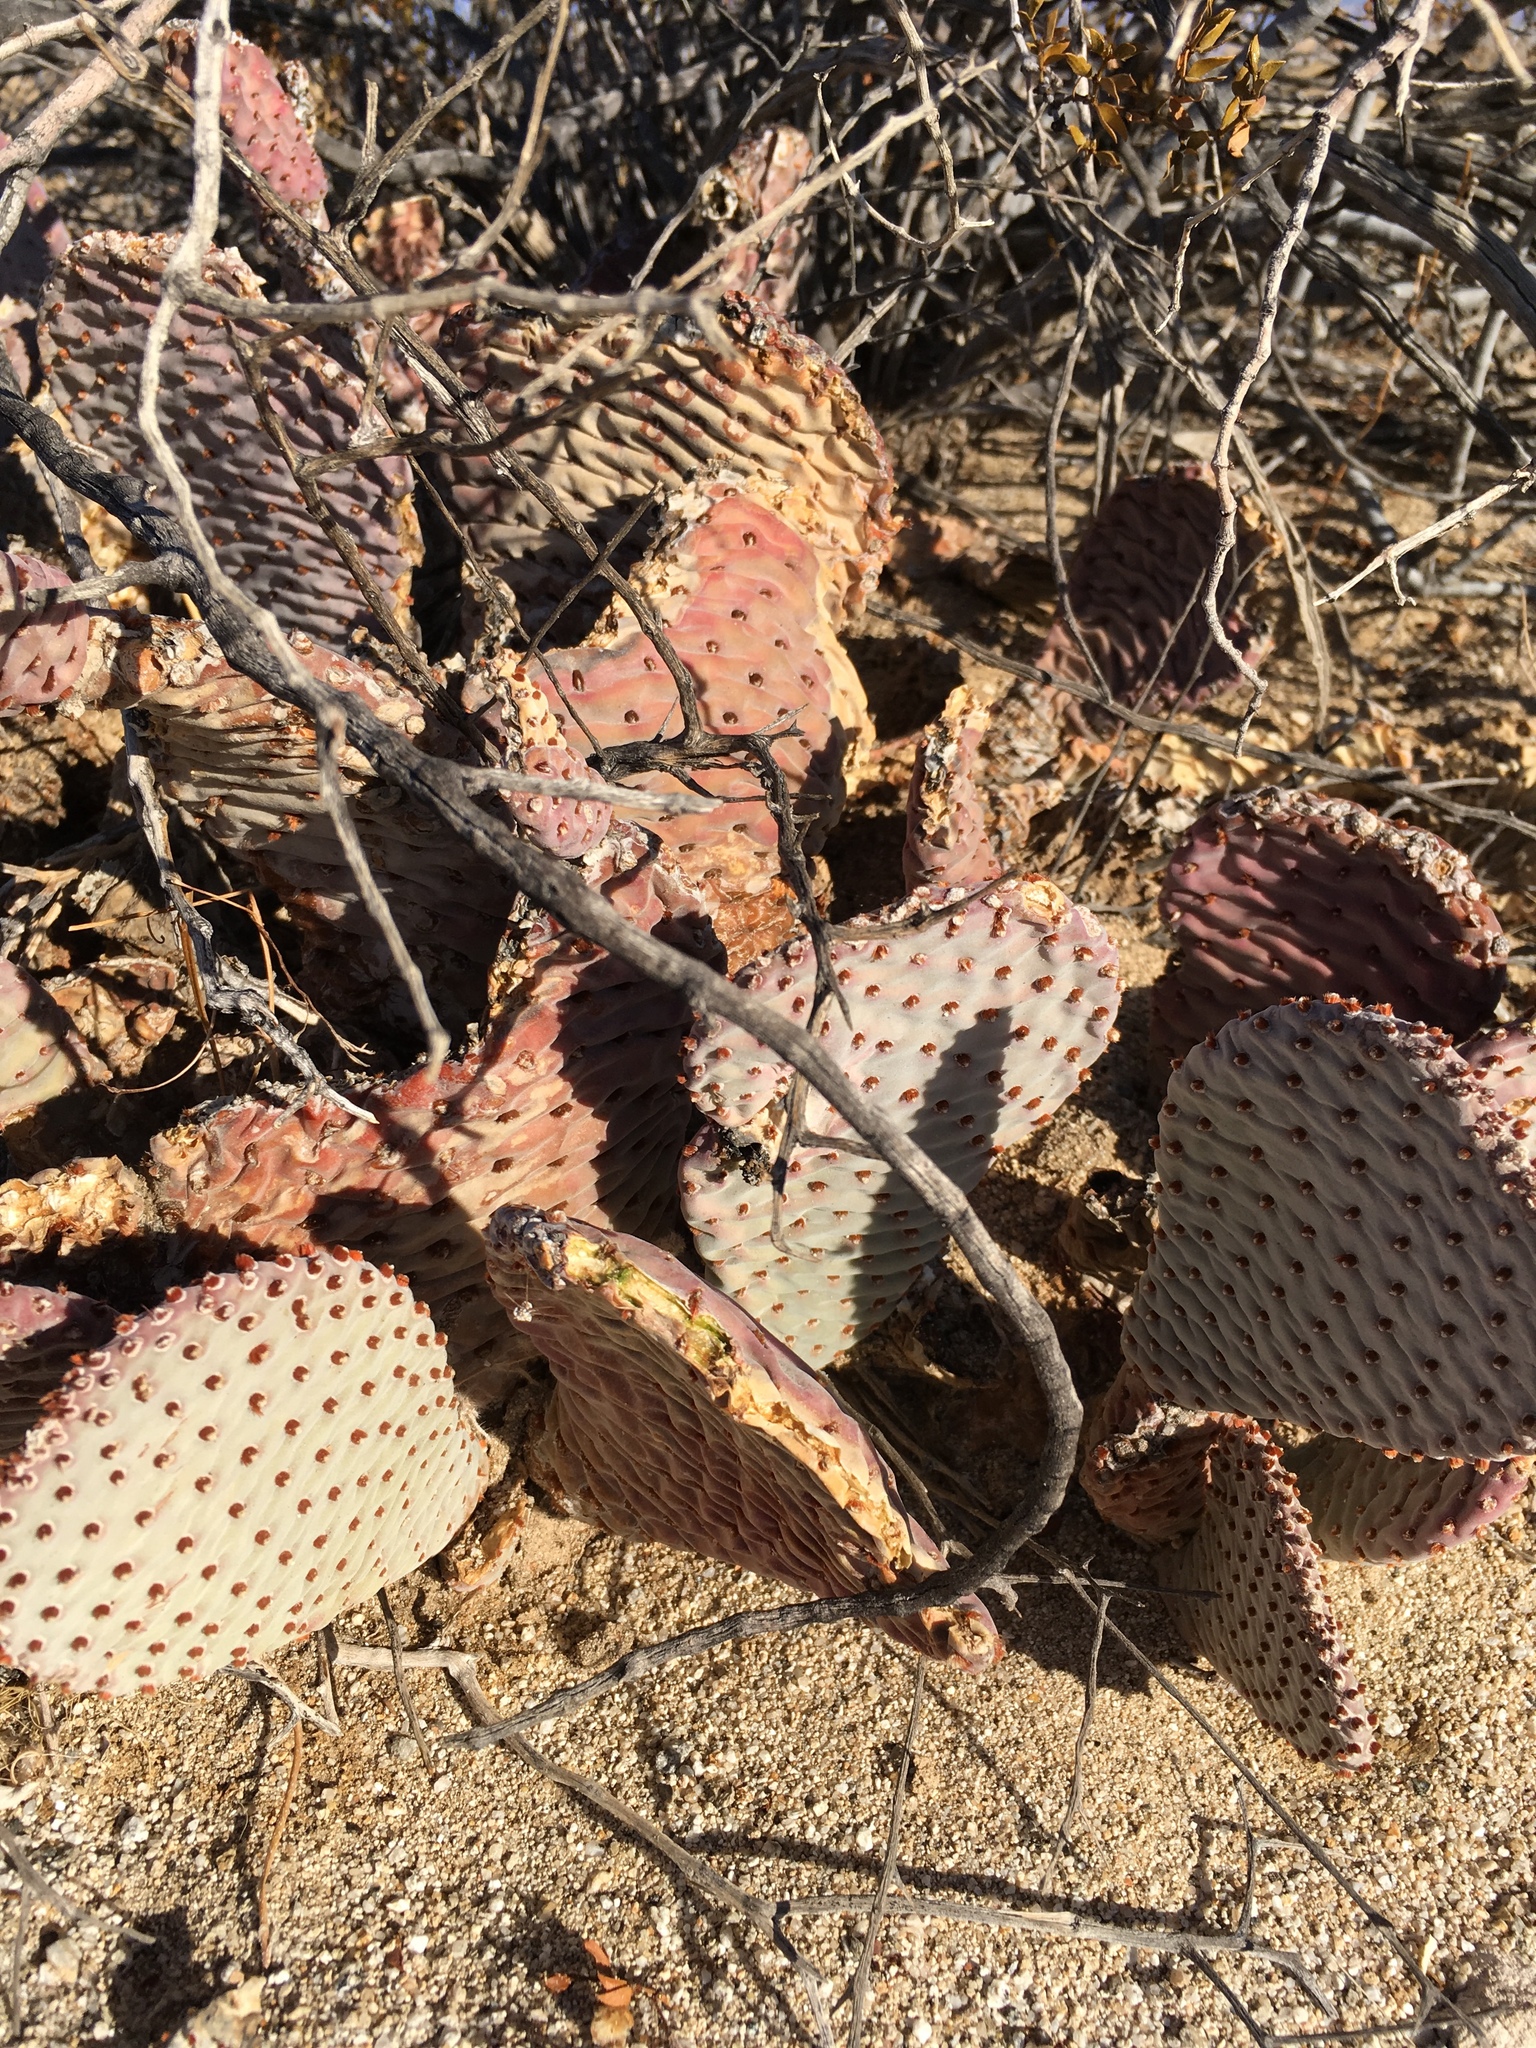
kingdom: Plantae
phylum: Tracheophyta
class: Magnoliopsida
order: Caryophyllales
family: Cactaceae
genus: Opuntia
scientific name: Opuntia basilaris
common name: Beavertail prickly-pear
